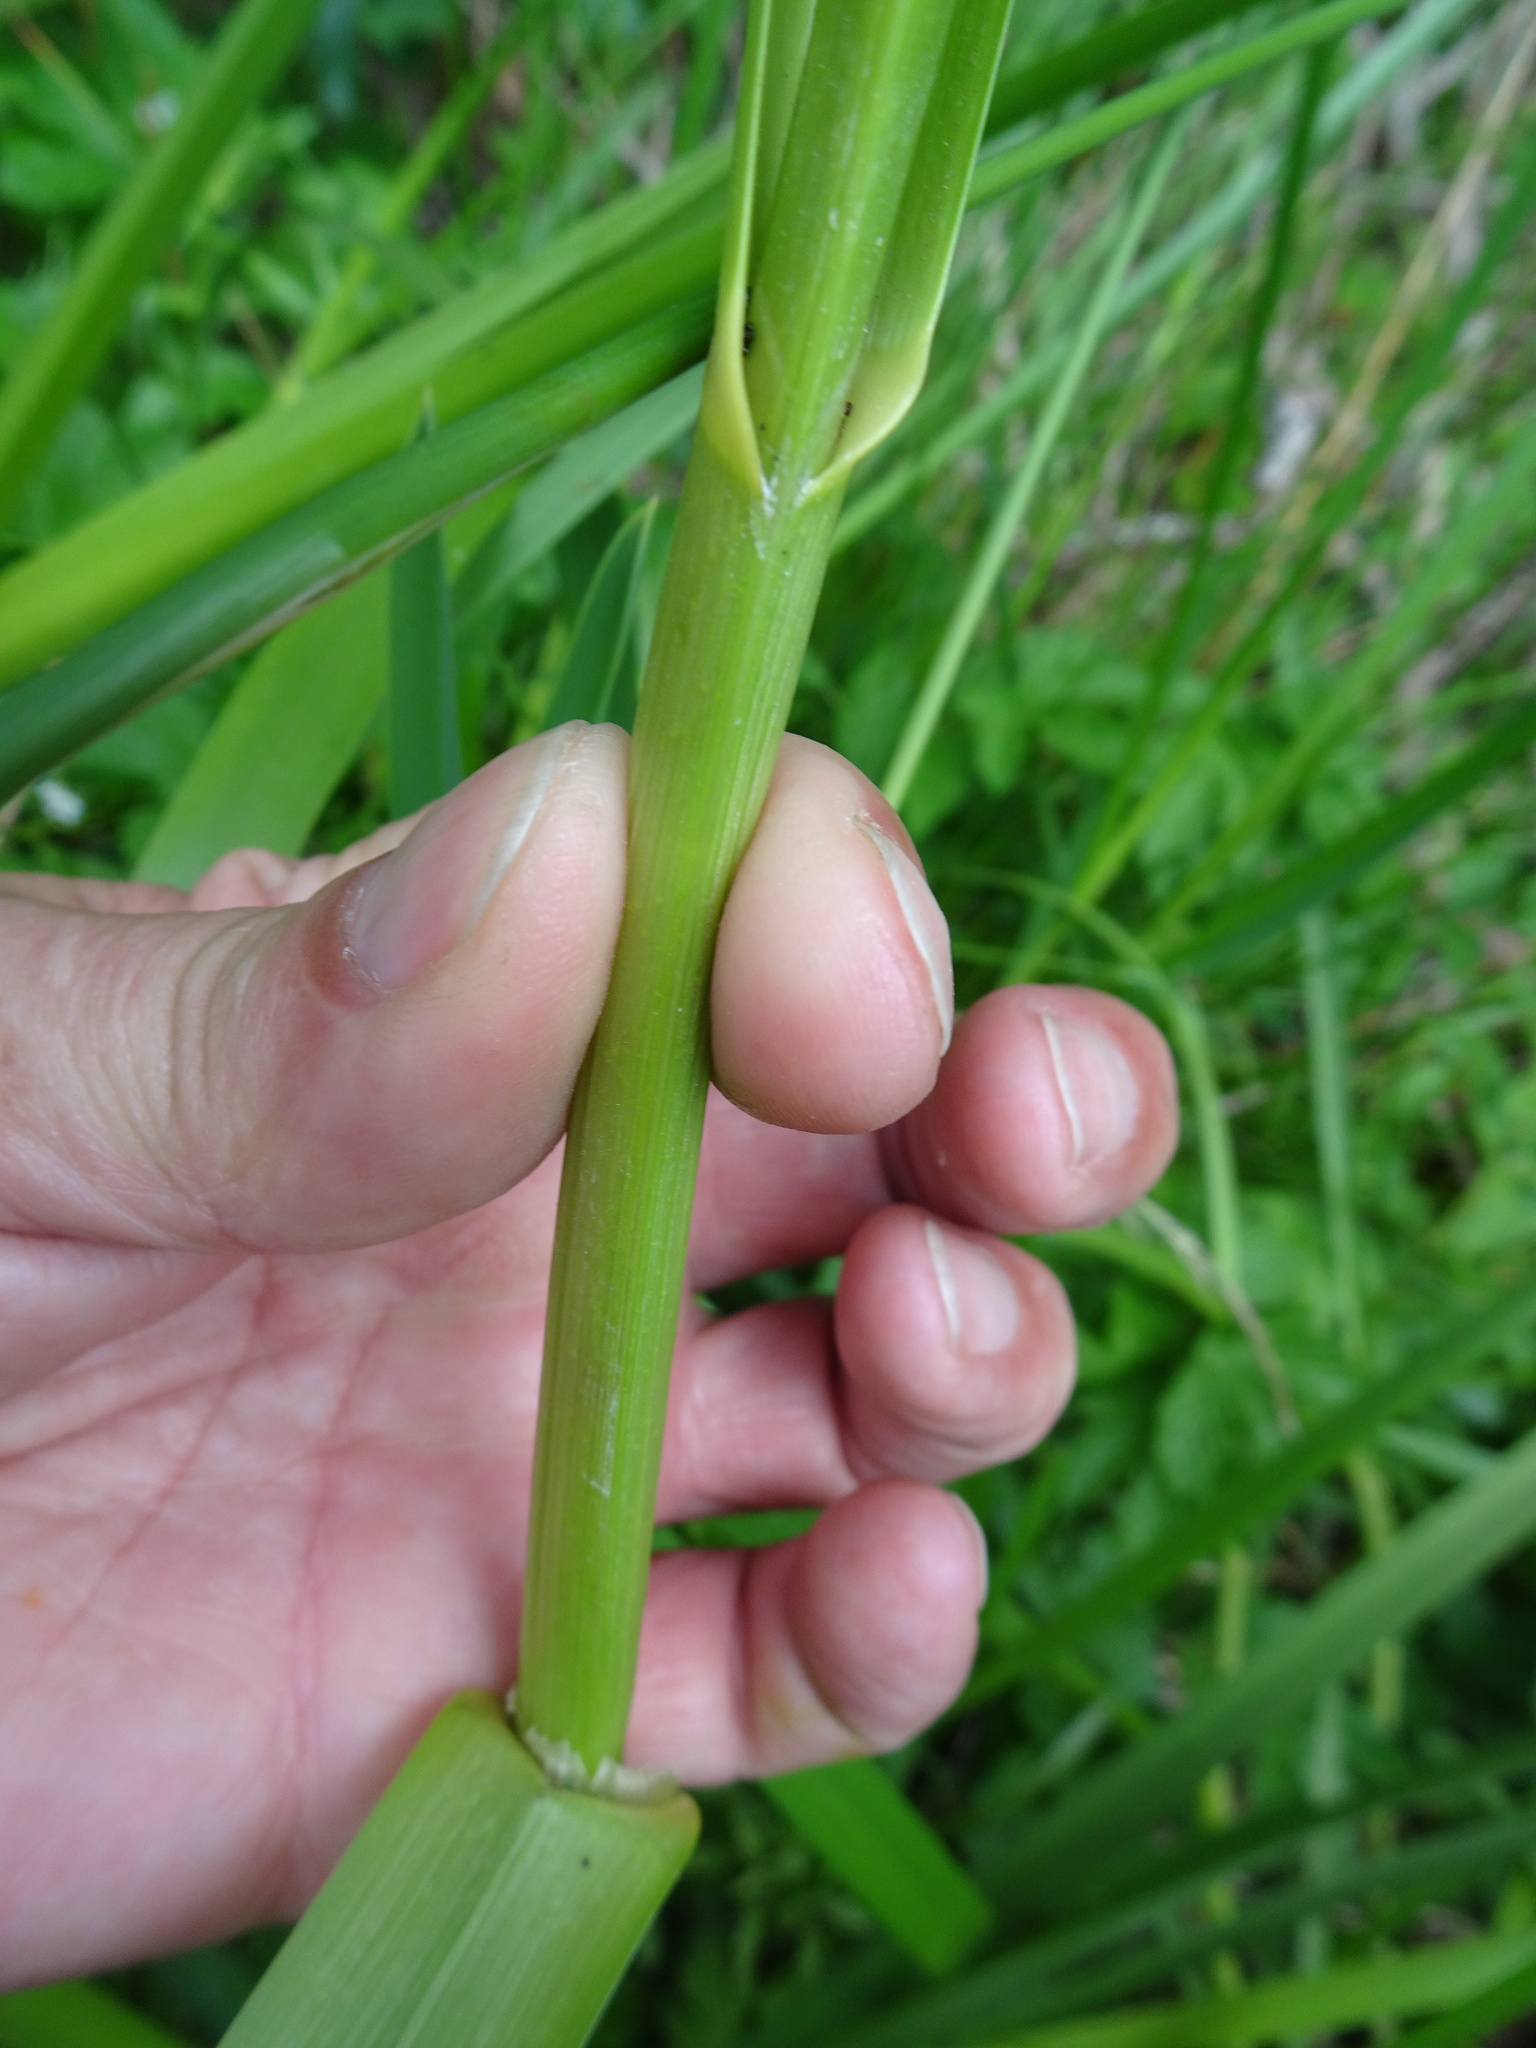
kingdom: Plantae
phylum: Tracheophyta
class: Liliopsida
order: Poales
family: Poaceae
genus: Glyceria
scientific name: Glyceria maxima
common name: Reed mannagrass
